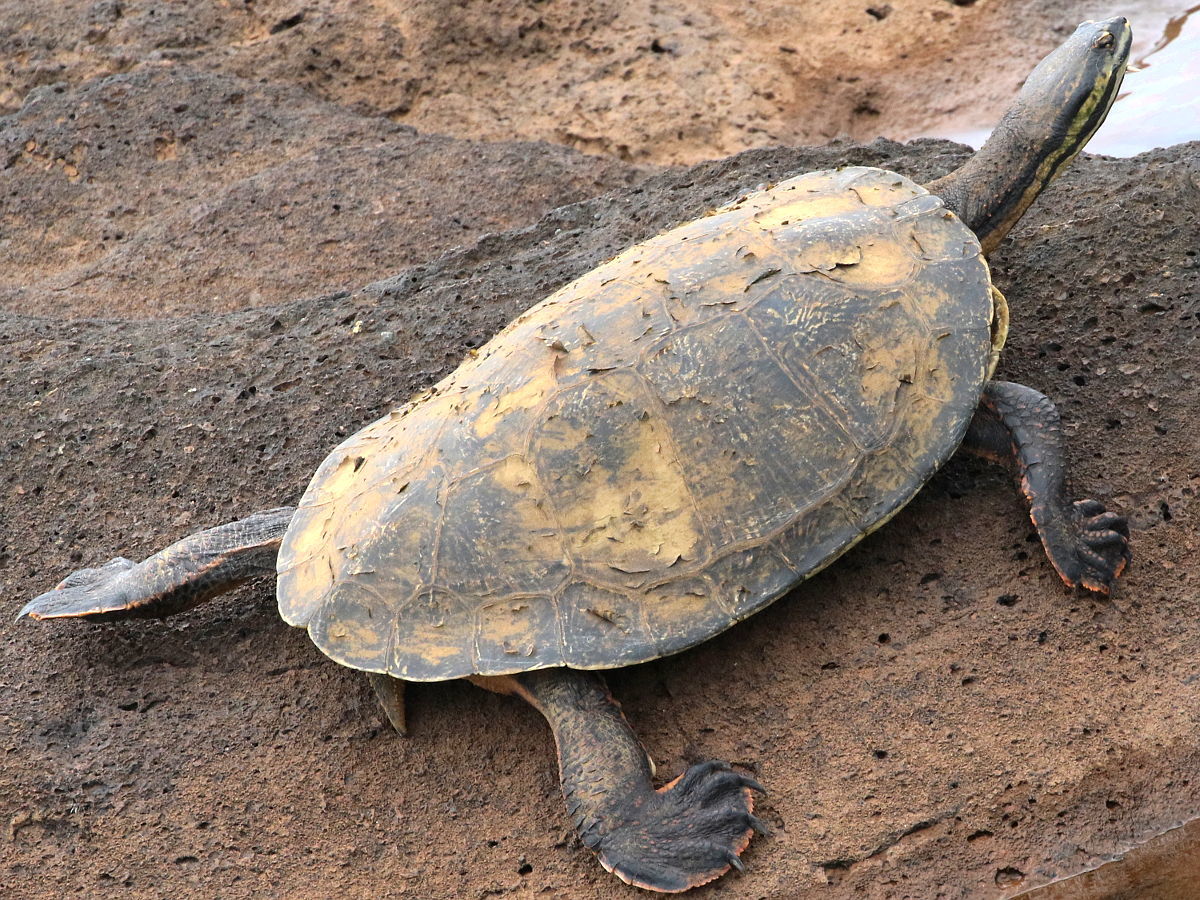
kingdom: Animalia
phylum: Chordata
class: Testudines
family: Chelidae
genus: Phrynops
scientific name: Phrynops williamsi
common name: Williams side-necked turtle
